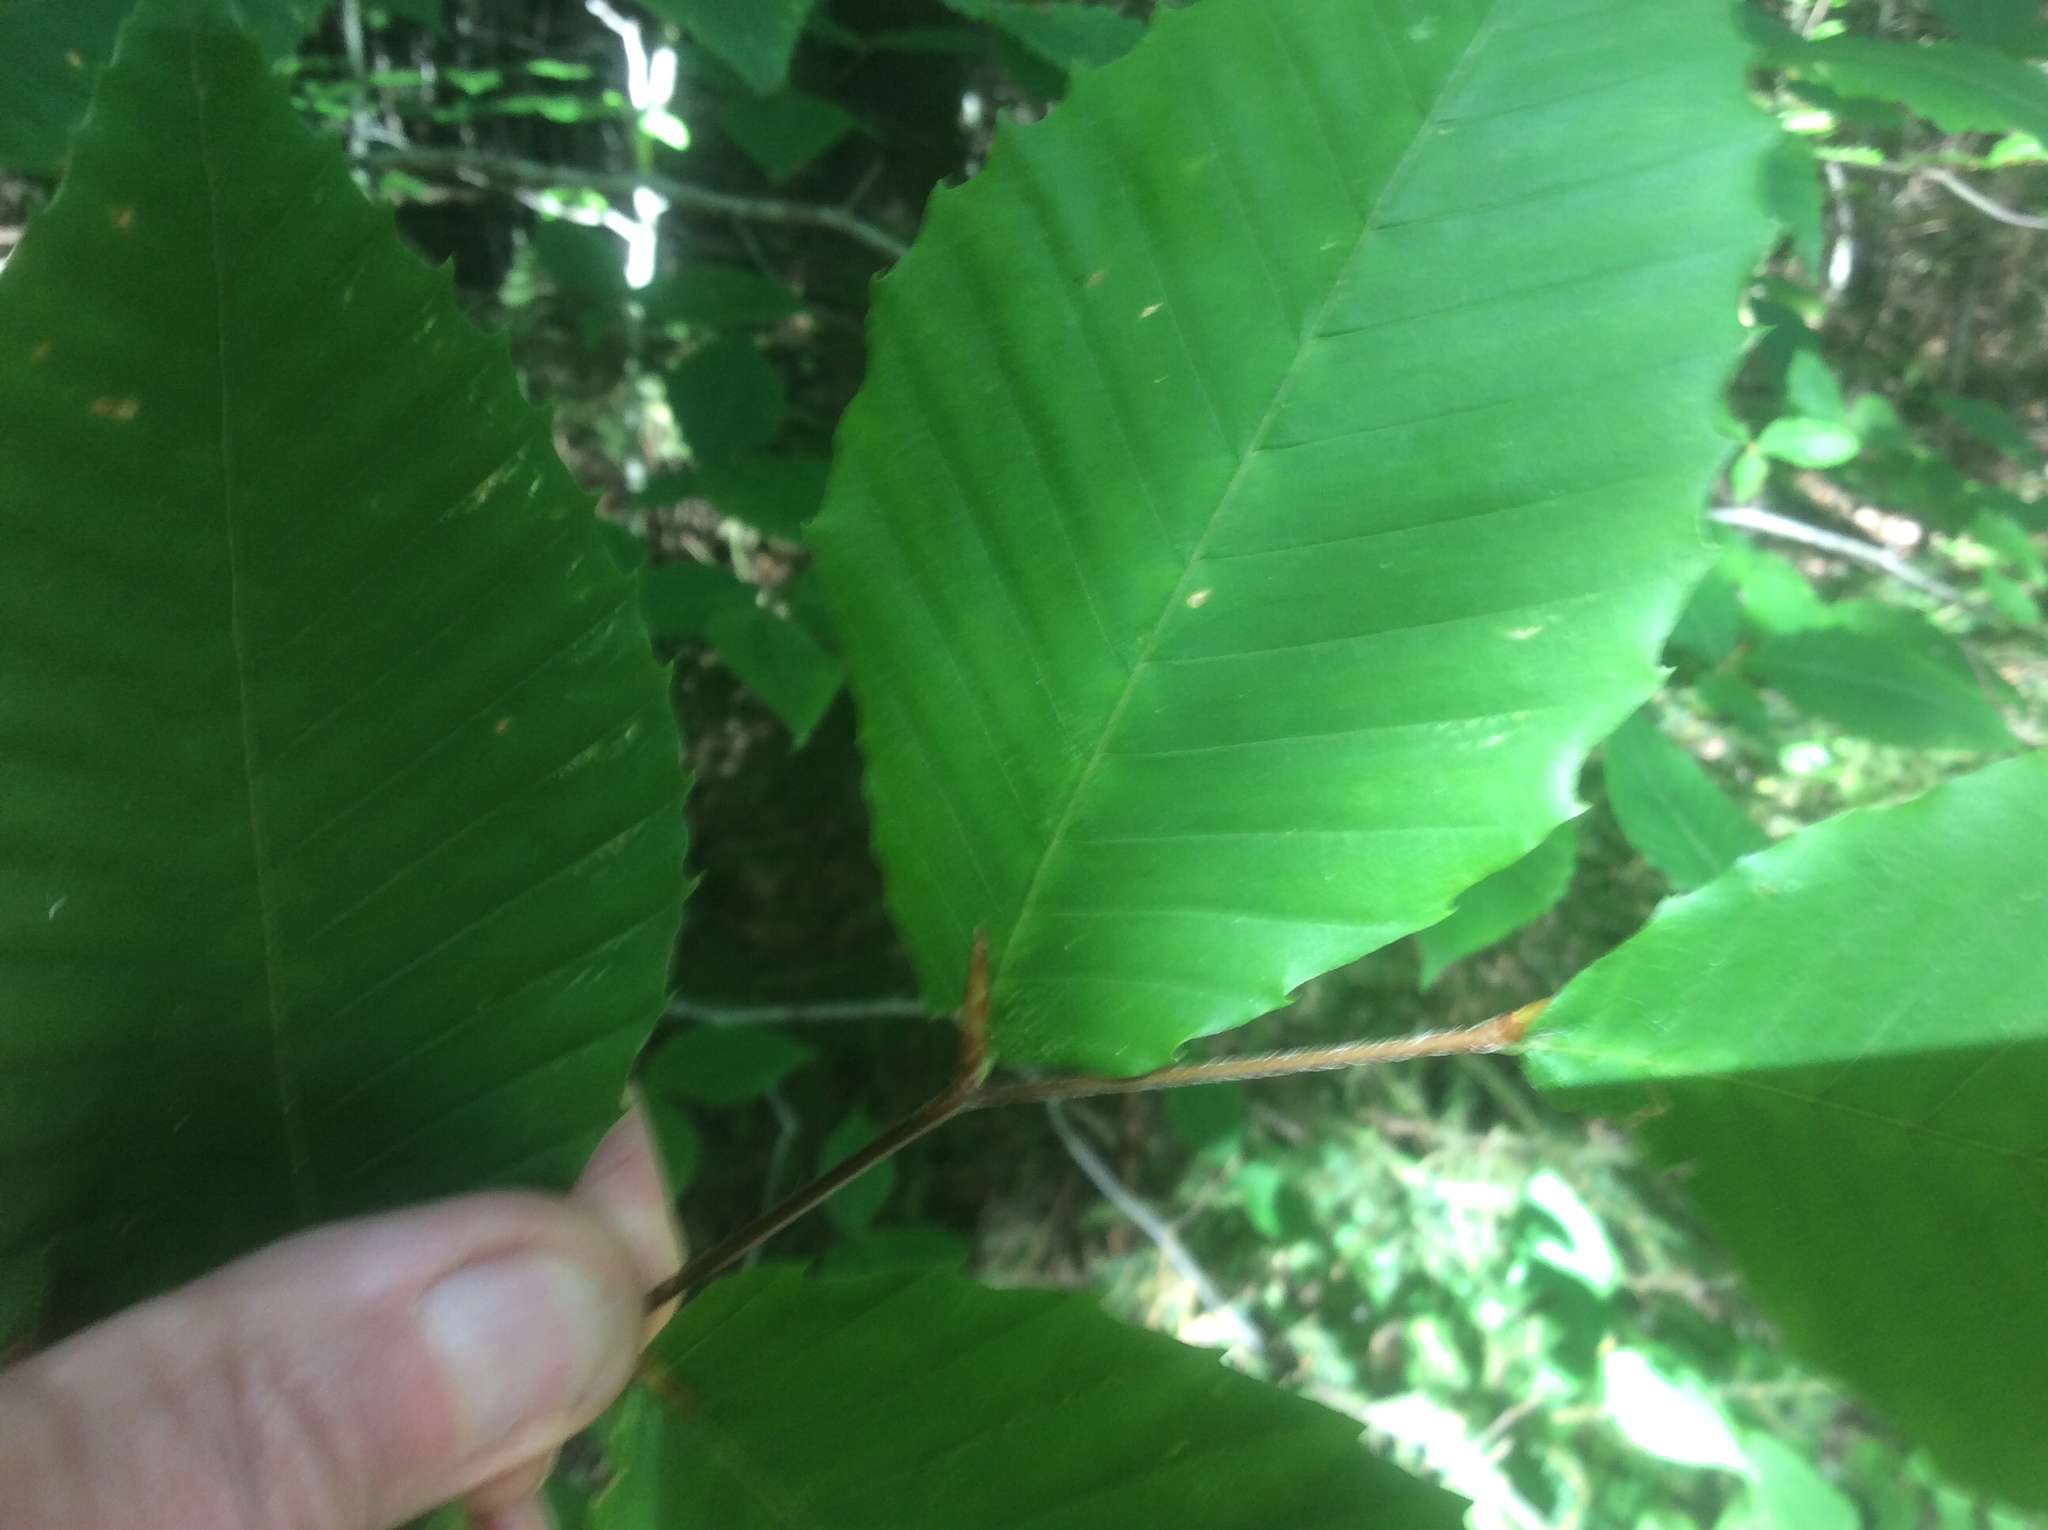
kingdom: Plantae
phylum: Tracheophyta
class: Magnoliopsida
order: Fagales
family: Fagaceae
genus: Fagus
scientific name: Fagus grandifolia
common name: American beech
